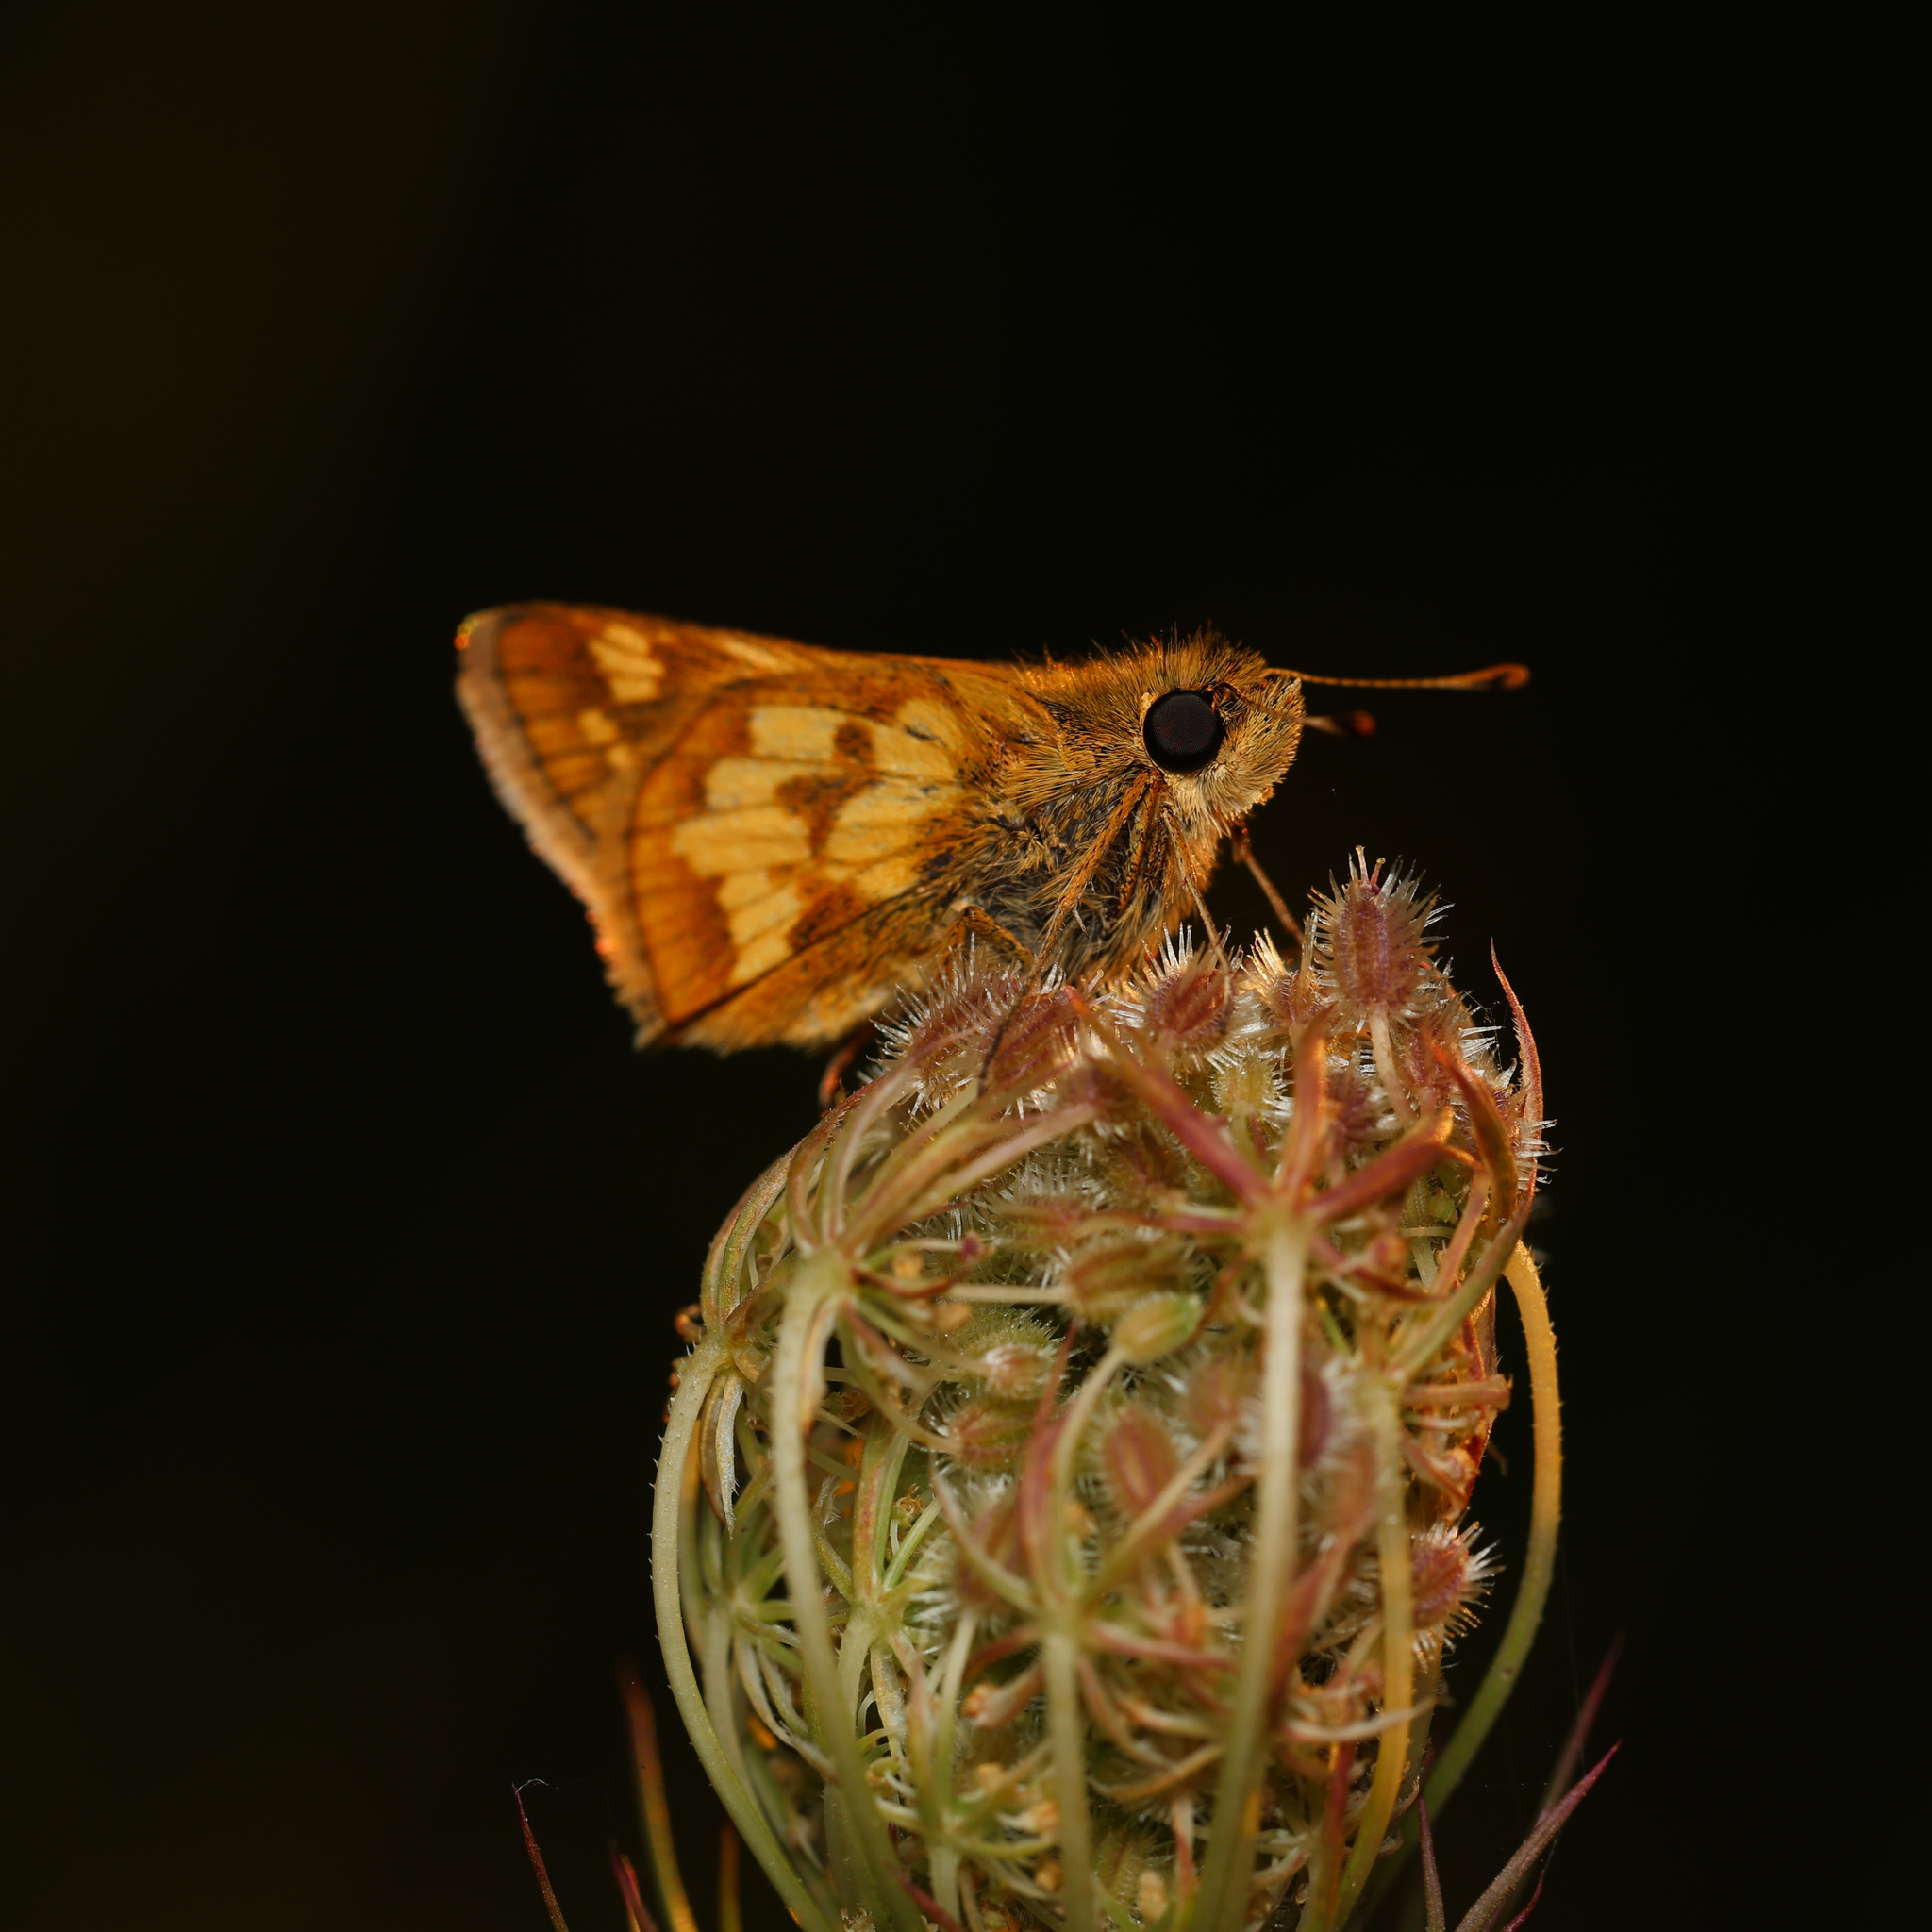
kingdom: Animalia
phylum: Arthropoda
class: Insecta
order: Lepidoptera
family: Hesperiidae
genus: Polites
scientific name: Polites coras
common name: Peck's skipper
